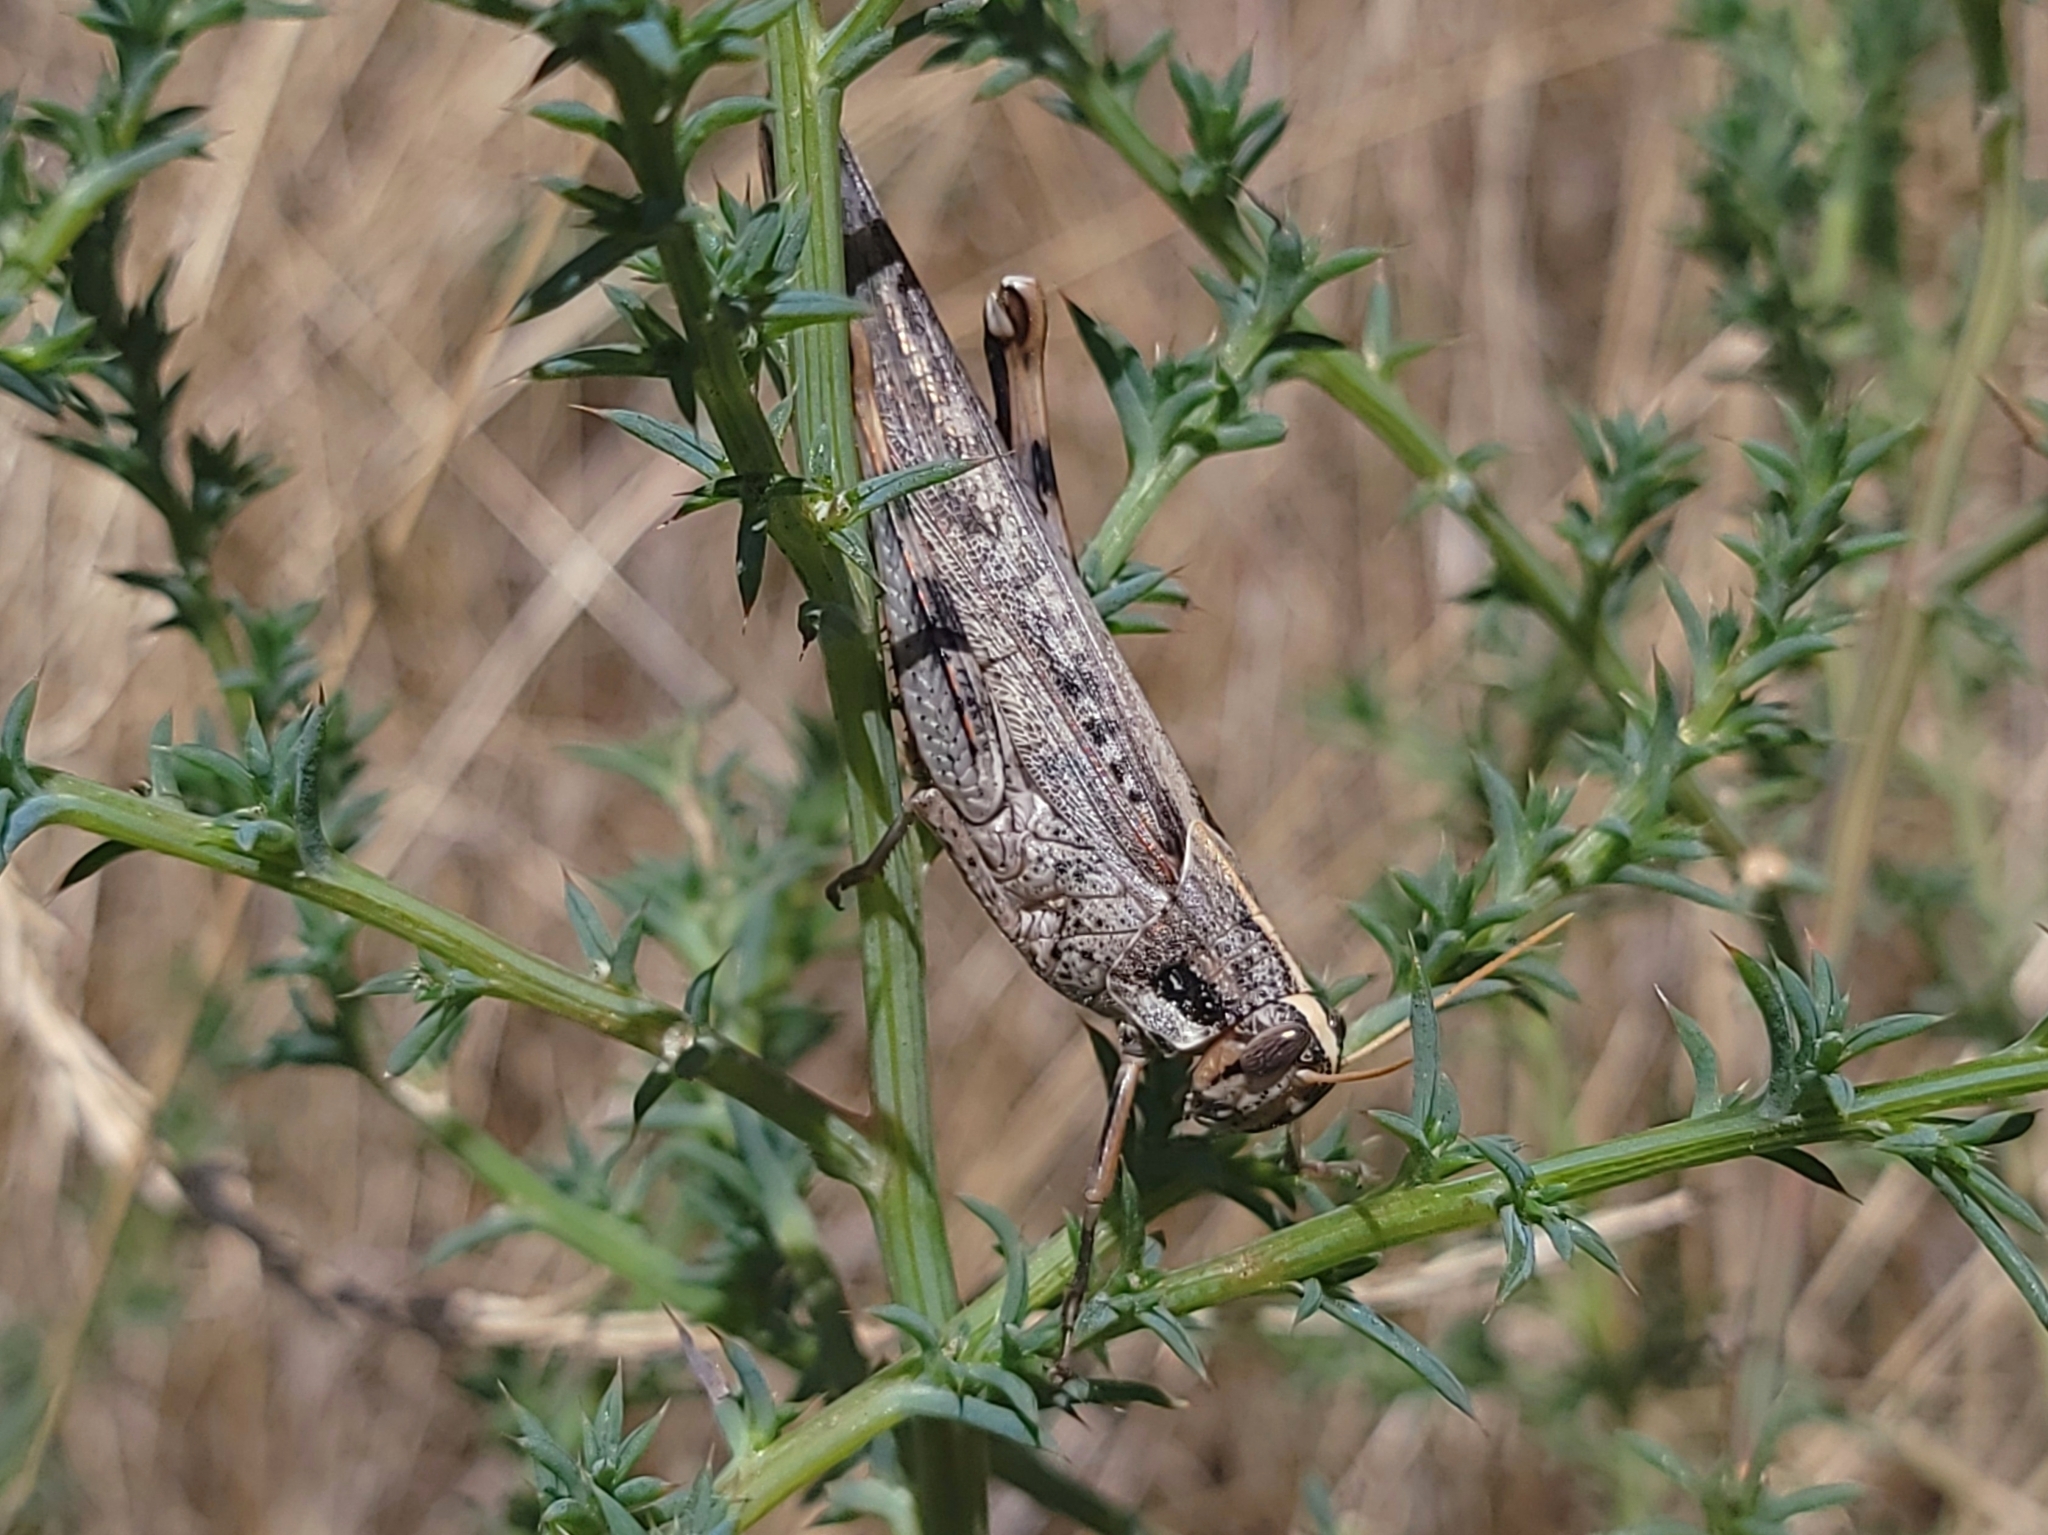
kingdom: Animalia
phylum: Arthropoda
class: Insecta
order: Orthoptera
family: Acrididae
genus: Schistocerca
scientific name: Schistocerca nitens
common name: Vagrant grasshopper
